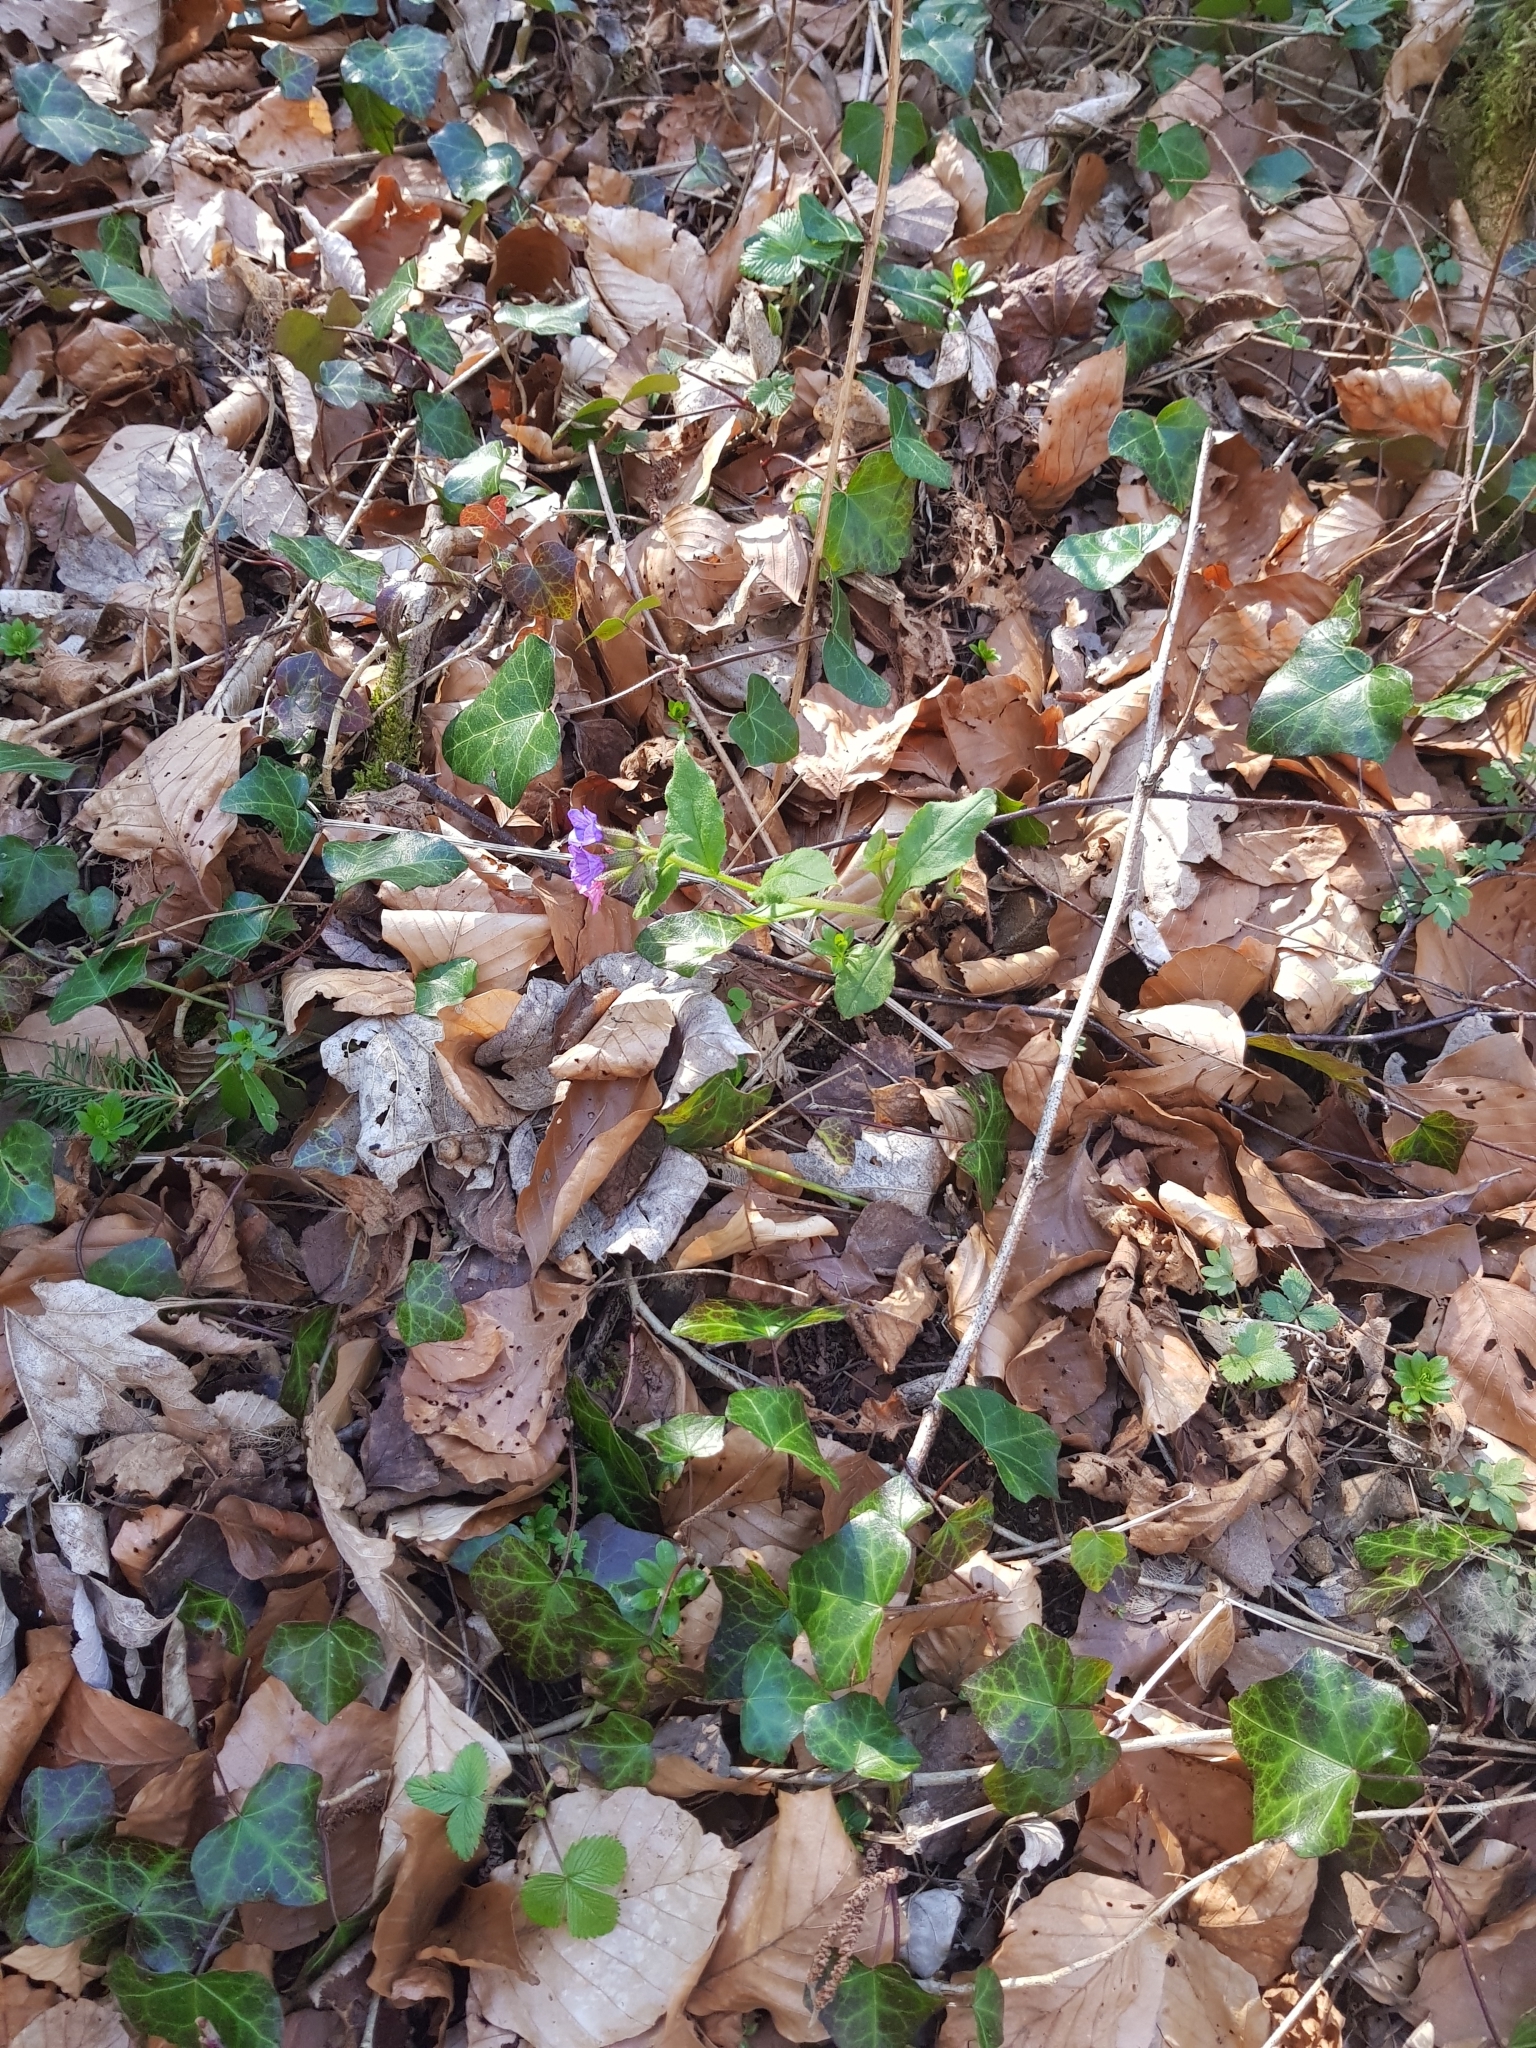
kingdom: Plantae
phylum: Tracheophyta
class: Magnoliopsida
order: Boraginales
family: Boraginaceae
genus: Pulmonaria
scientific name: Pulmonaria obscura
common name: Suffolk lungwort
